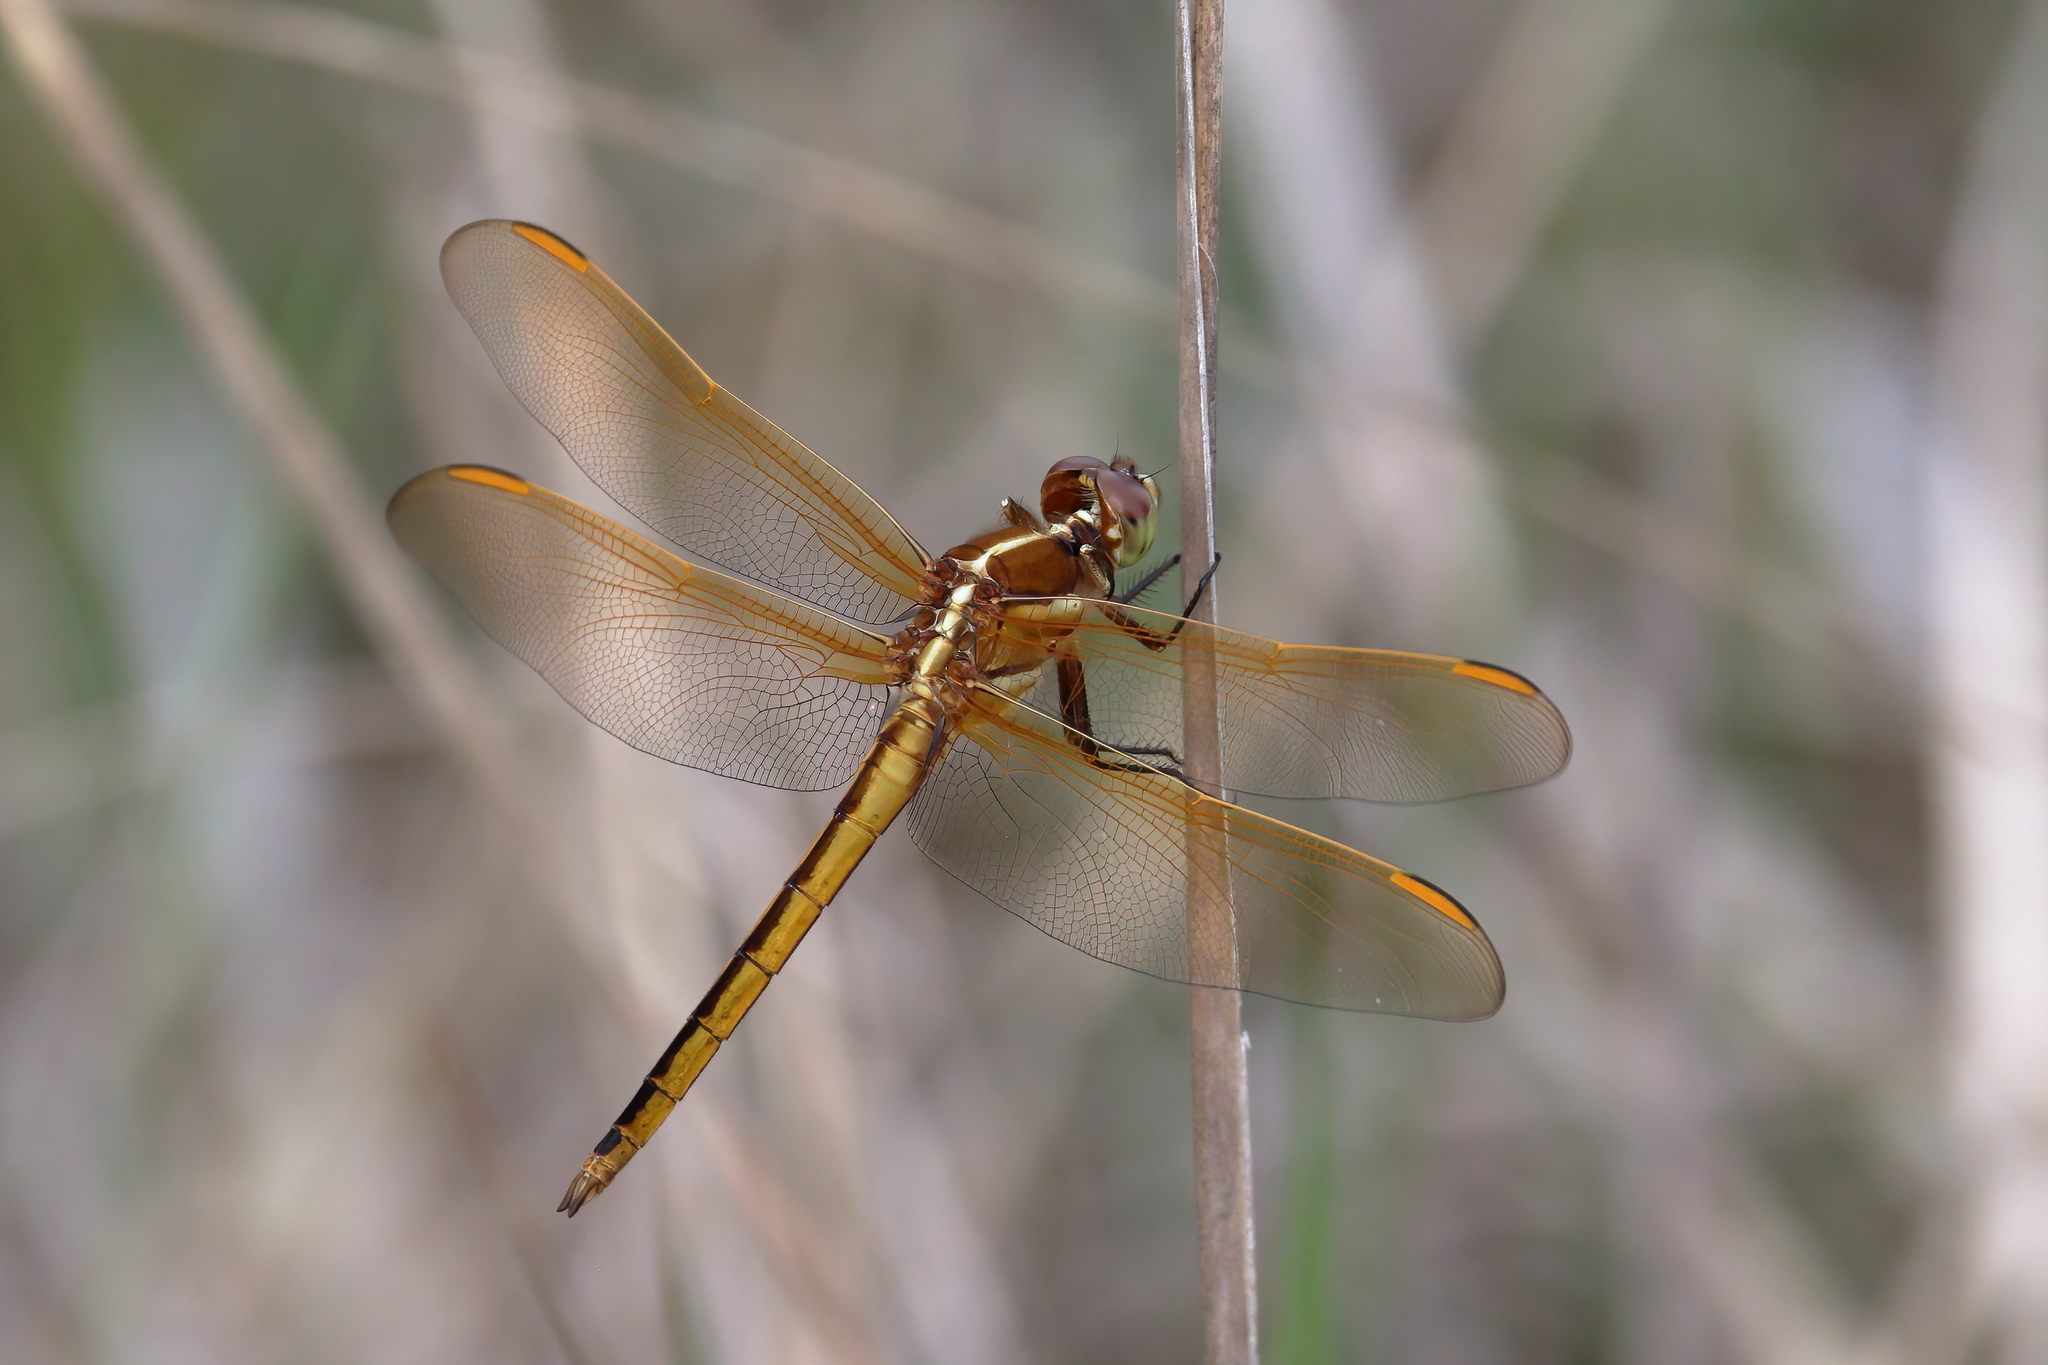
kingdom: Animalia
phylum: Arthropoda
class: Insecta
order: Odonata
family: Libellulidae
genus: Libellula
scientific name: Libellula auripennis
